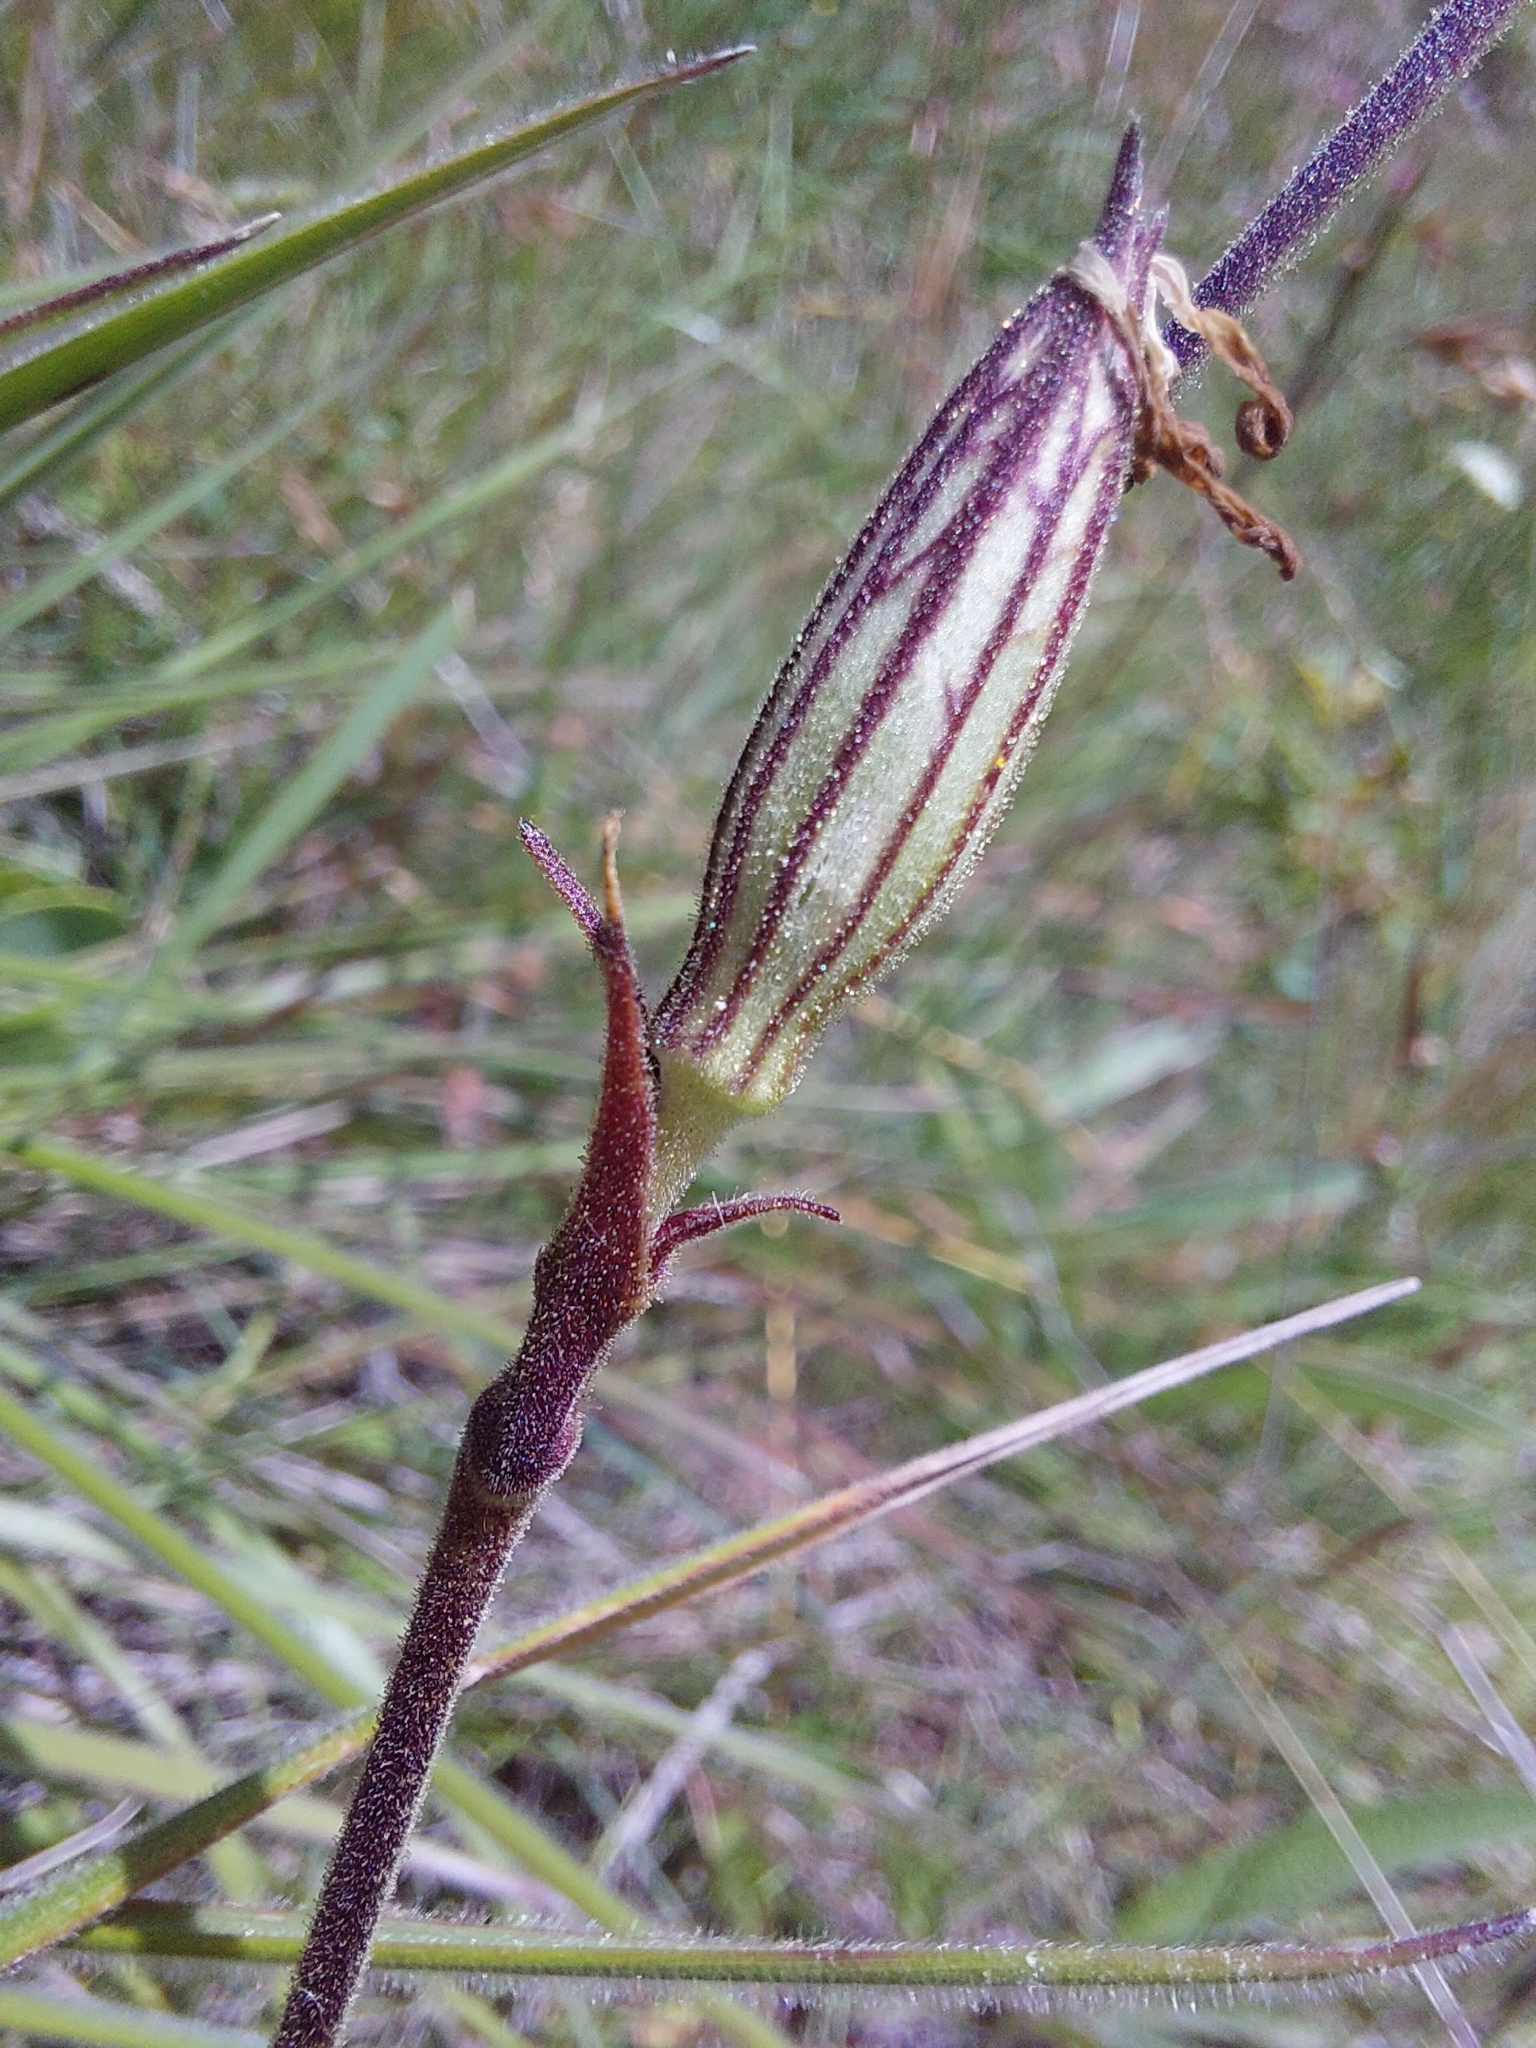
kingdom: Plantae
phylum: Tracheophyta
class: Magnoliopsida
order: Caryophyllales
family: Caryophyllaceae
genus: Silene
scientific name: Silene undulata
